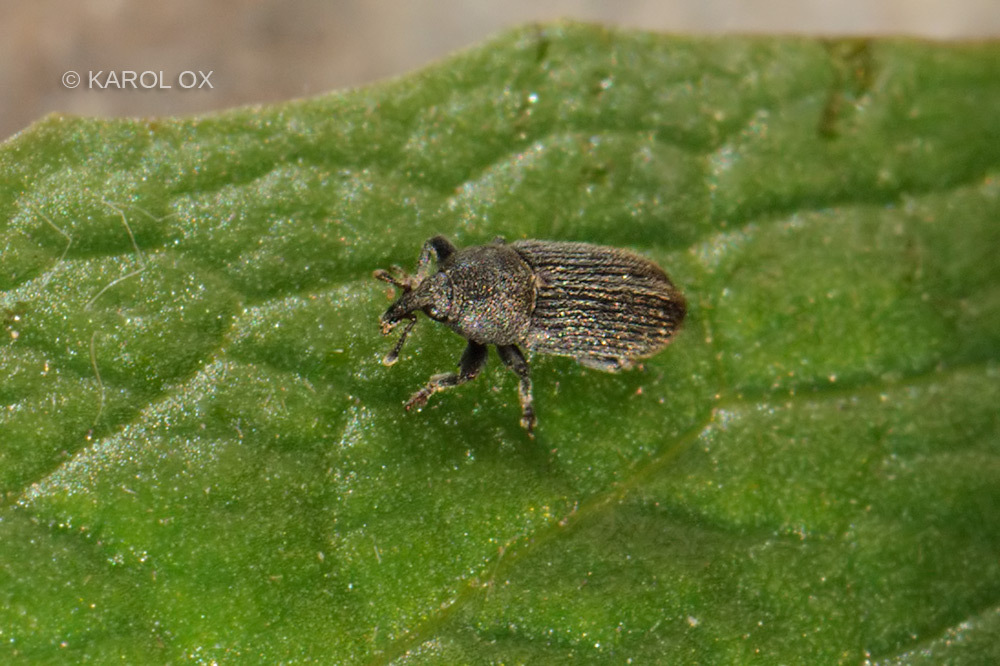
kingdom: Animalia
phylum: Arthropoda
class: Insecta
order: Coleoptera
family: Curculionidae
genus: Mecinus
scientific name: Mecinus pyraster
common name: Weevil
